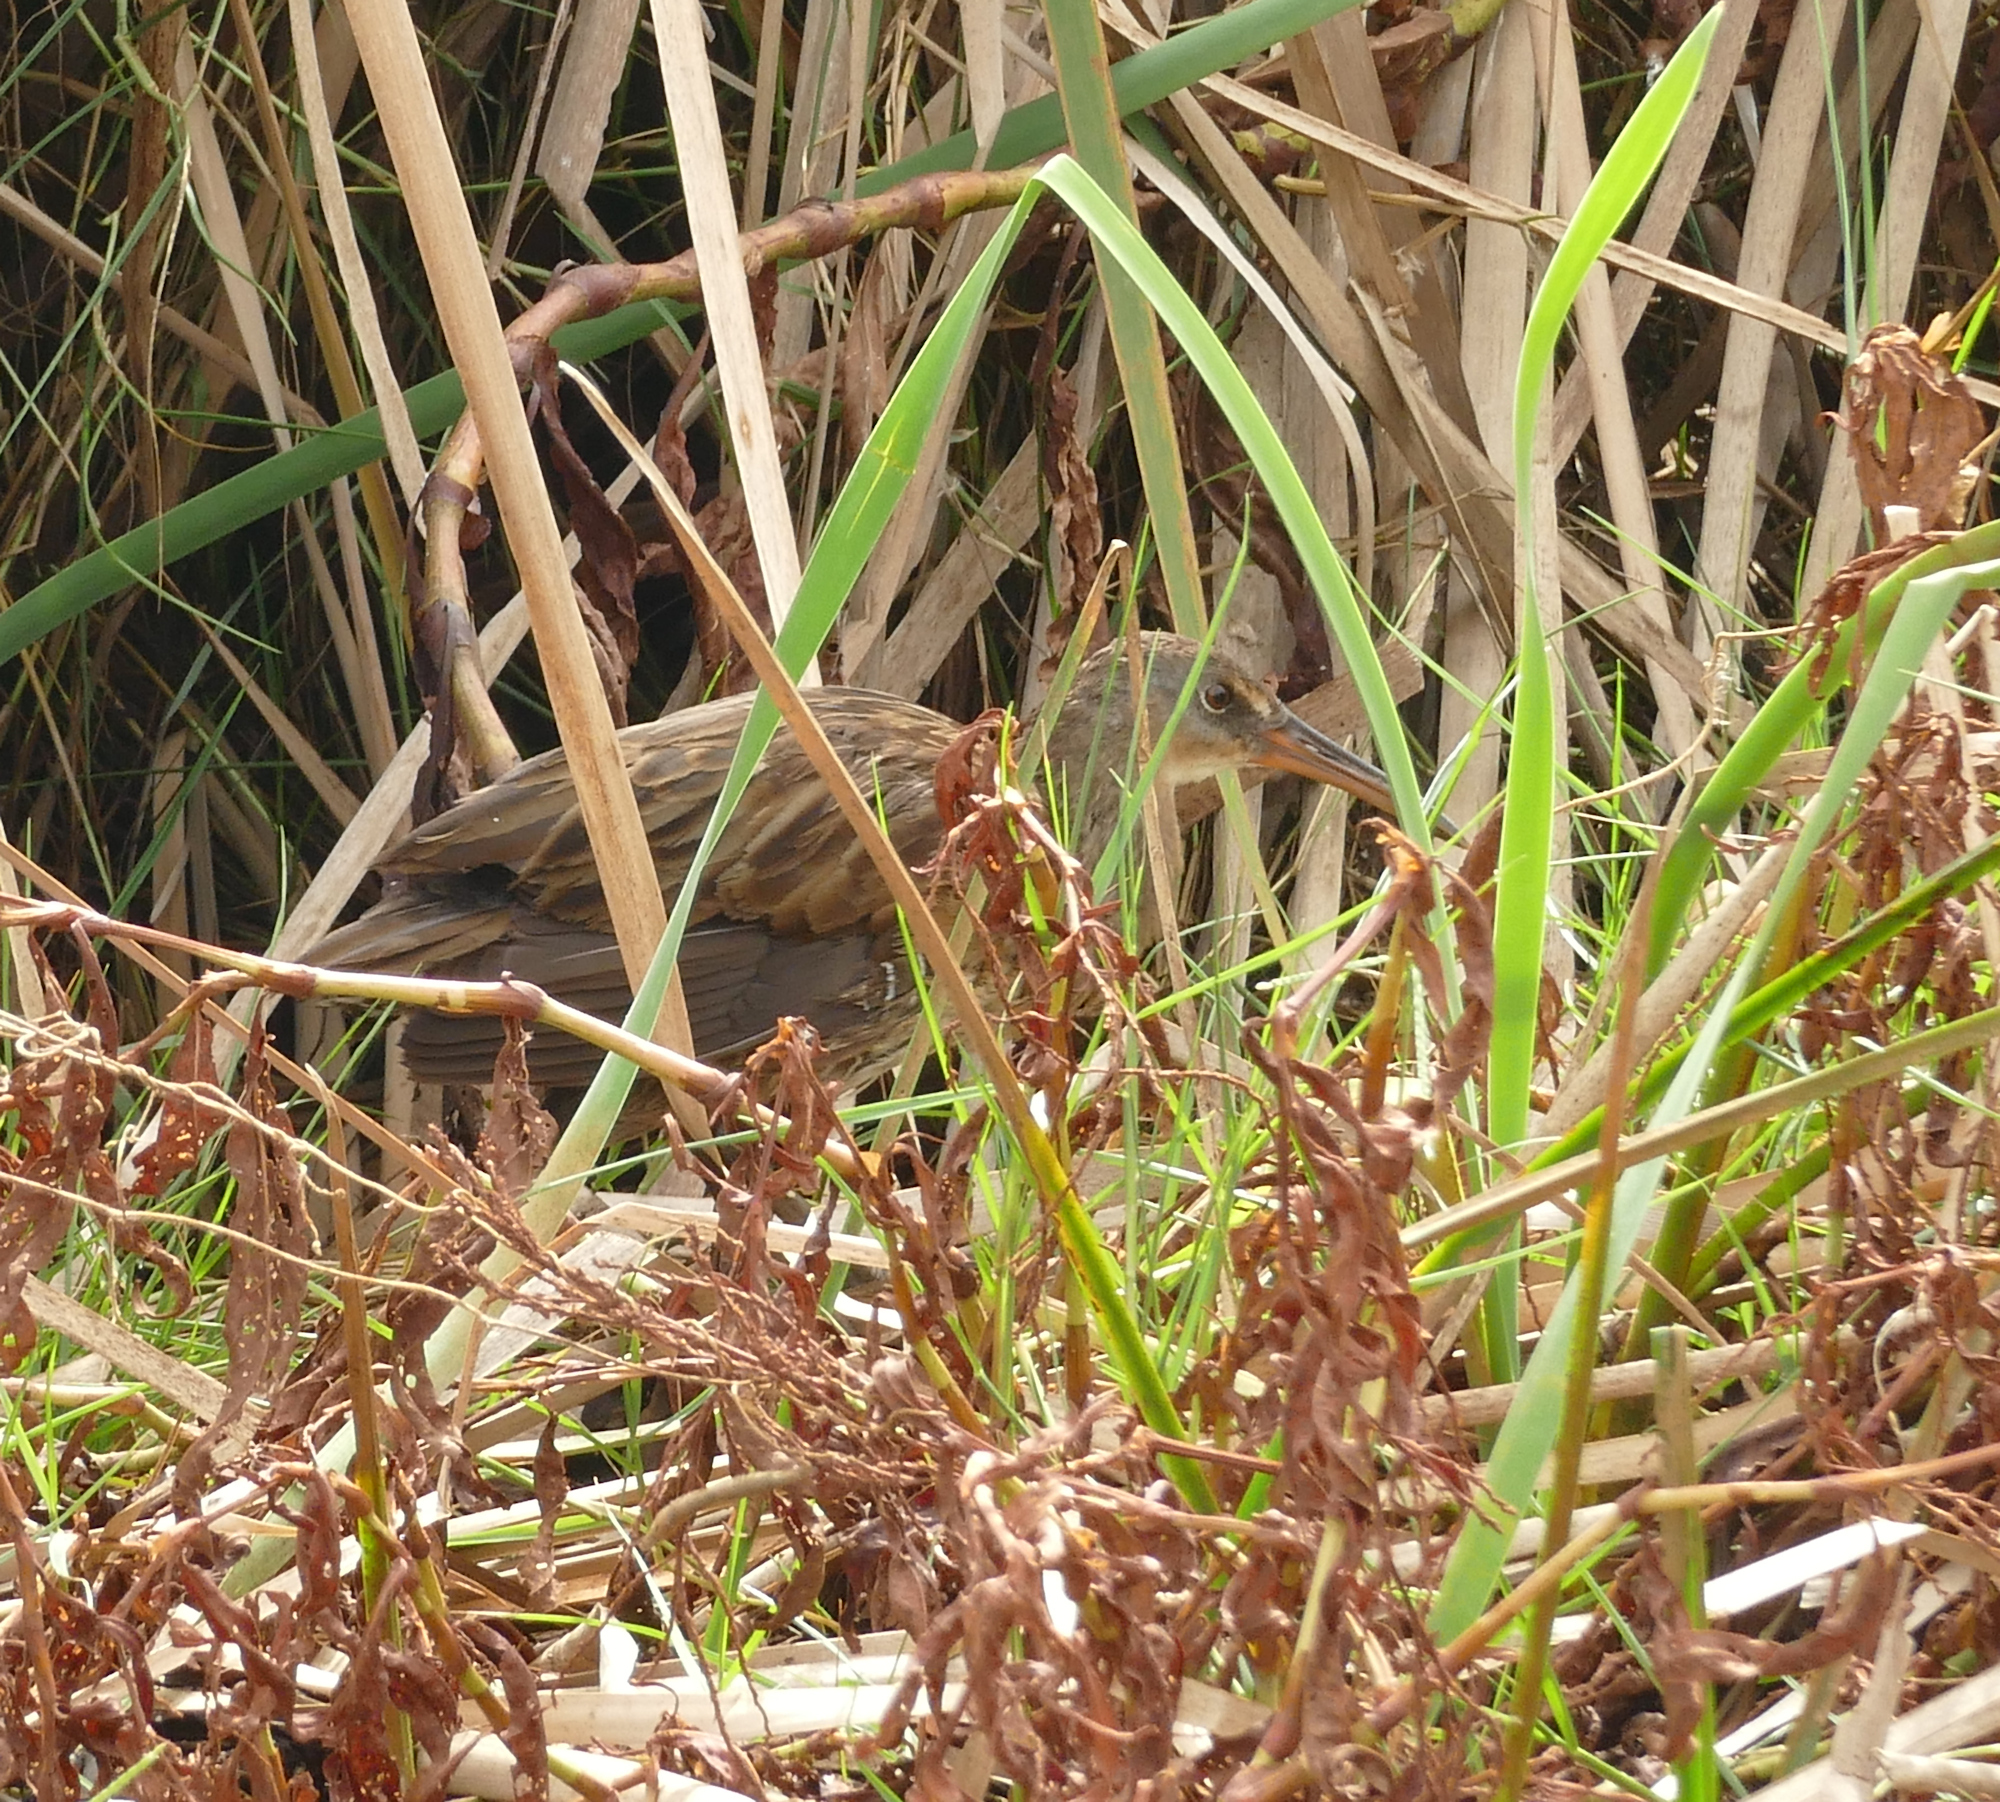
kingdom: Animalia
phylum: Chordata
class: Aves
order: Gruiformes
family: Rallidae
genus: Rallus
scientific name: Rallus crepitans
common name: Clapper rail
